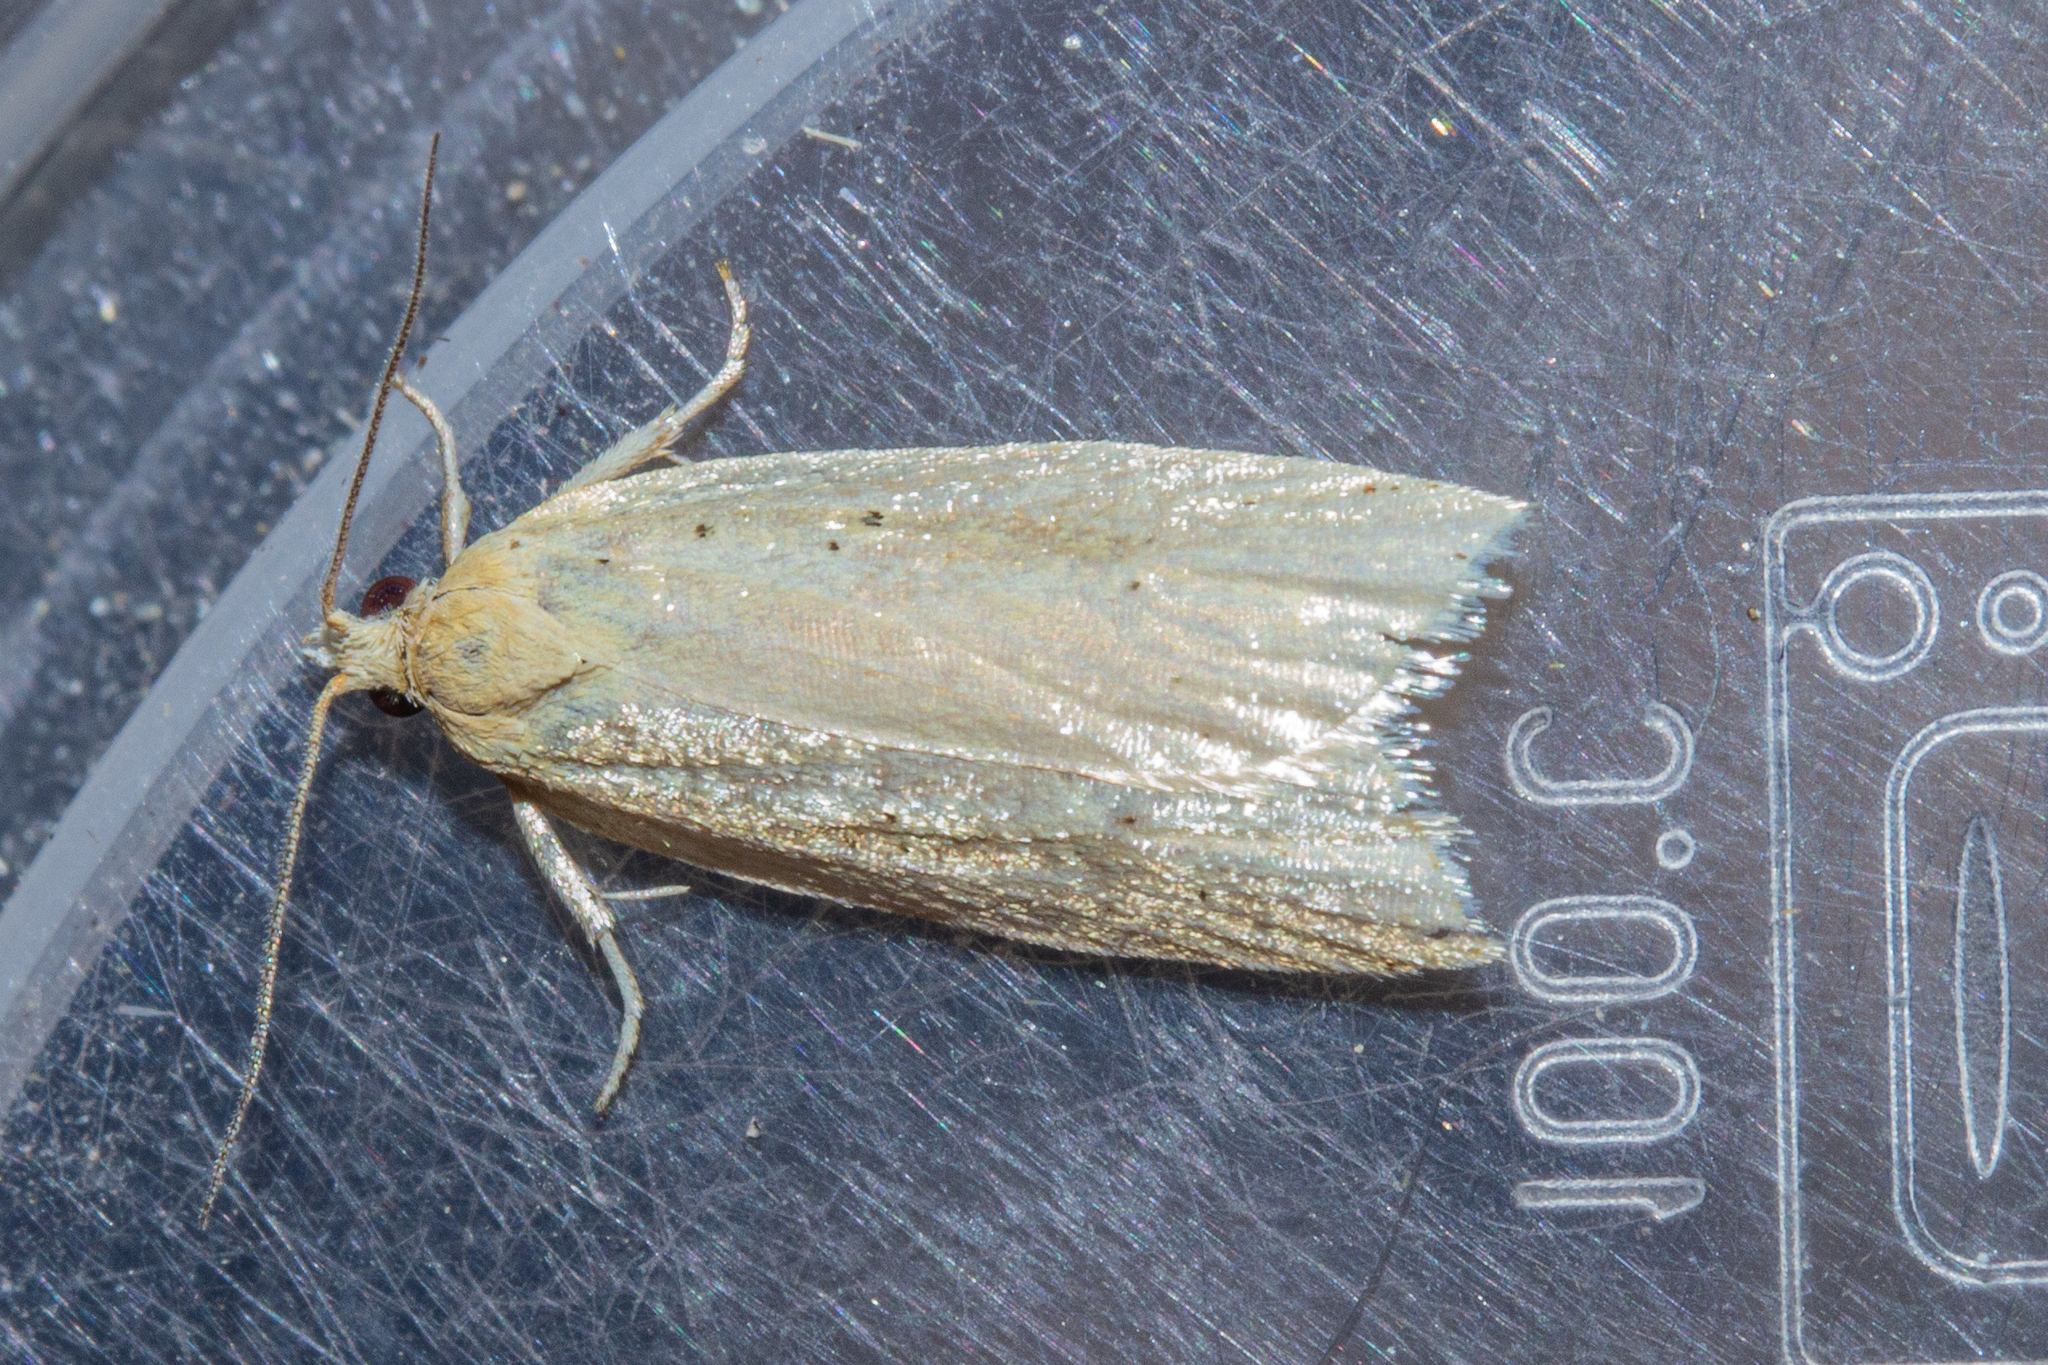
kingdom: Animalia
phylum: Arthropoda
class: Insecta
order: Lepidoptera
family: Tortricidae
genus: Clepsis
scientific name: Clepsis
